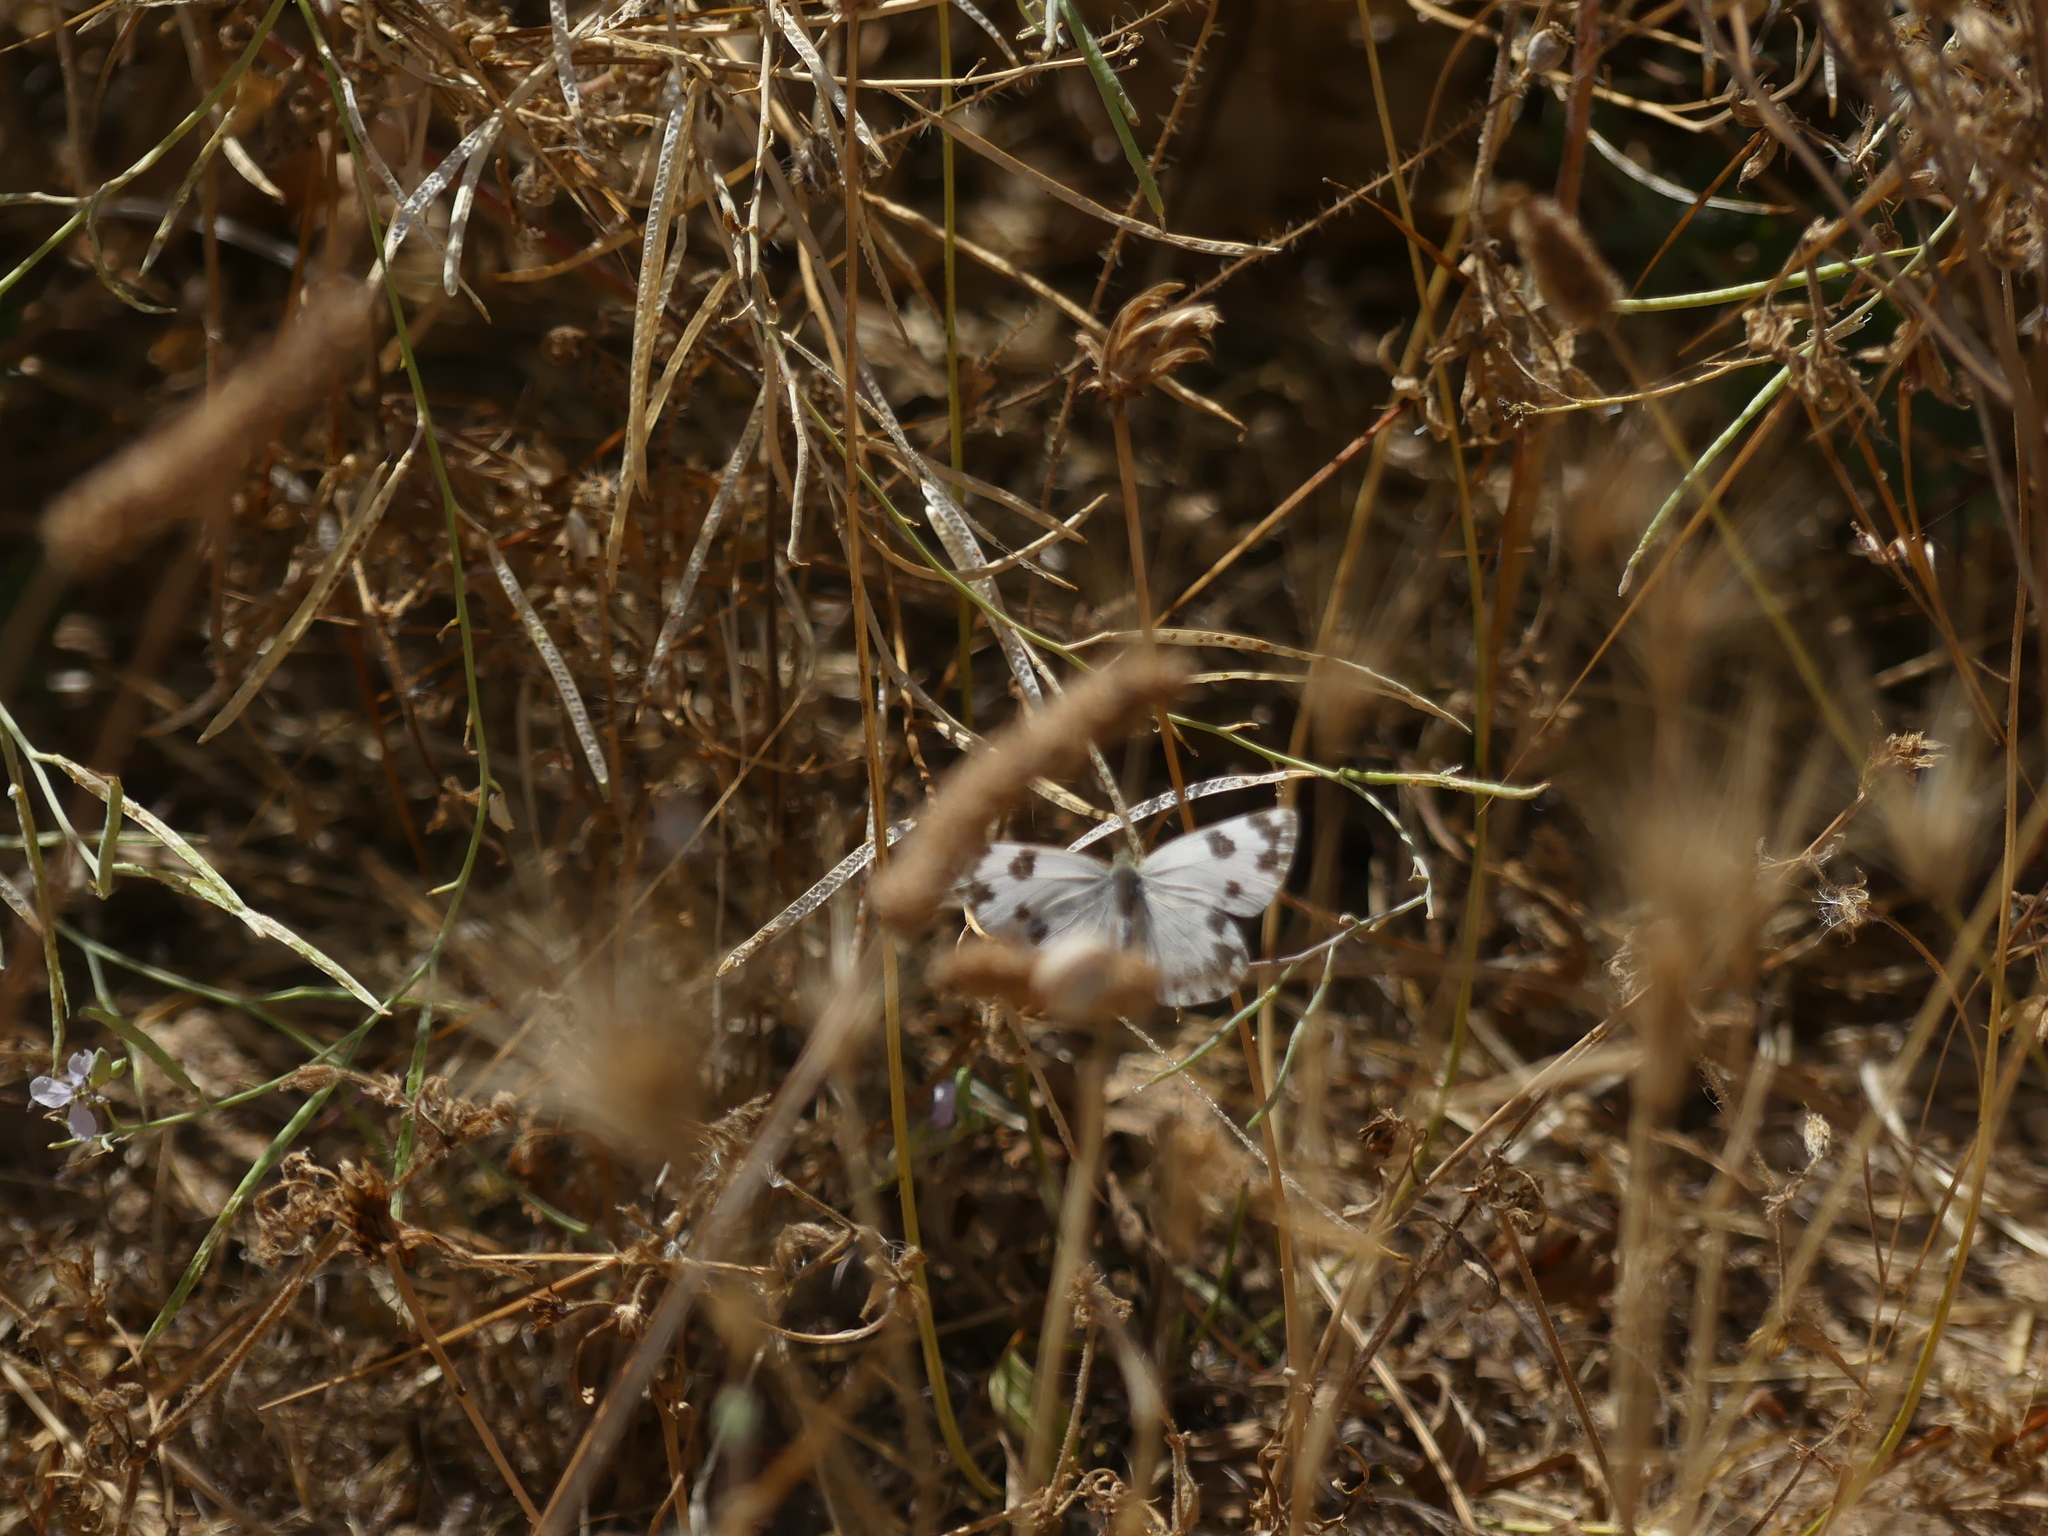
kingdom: Animalia
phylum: Arthropoda
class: Insecta
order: Lepidoptera
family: Pieridae
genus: Pontia
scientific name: Pontia daplidice
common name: Bath white
